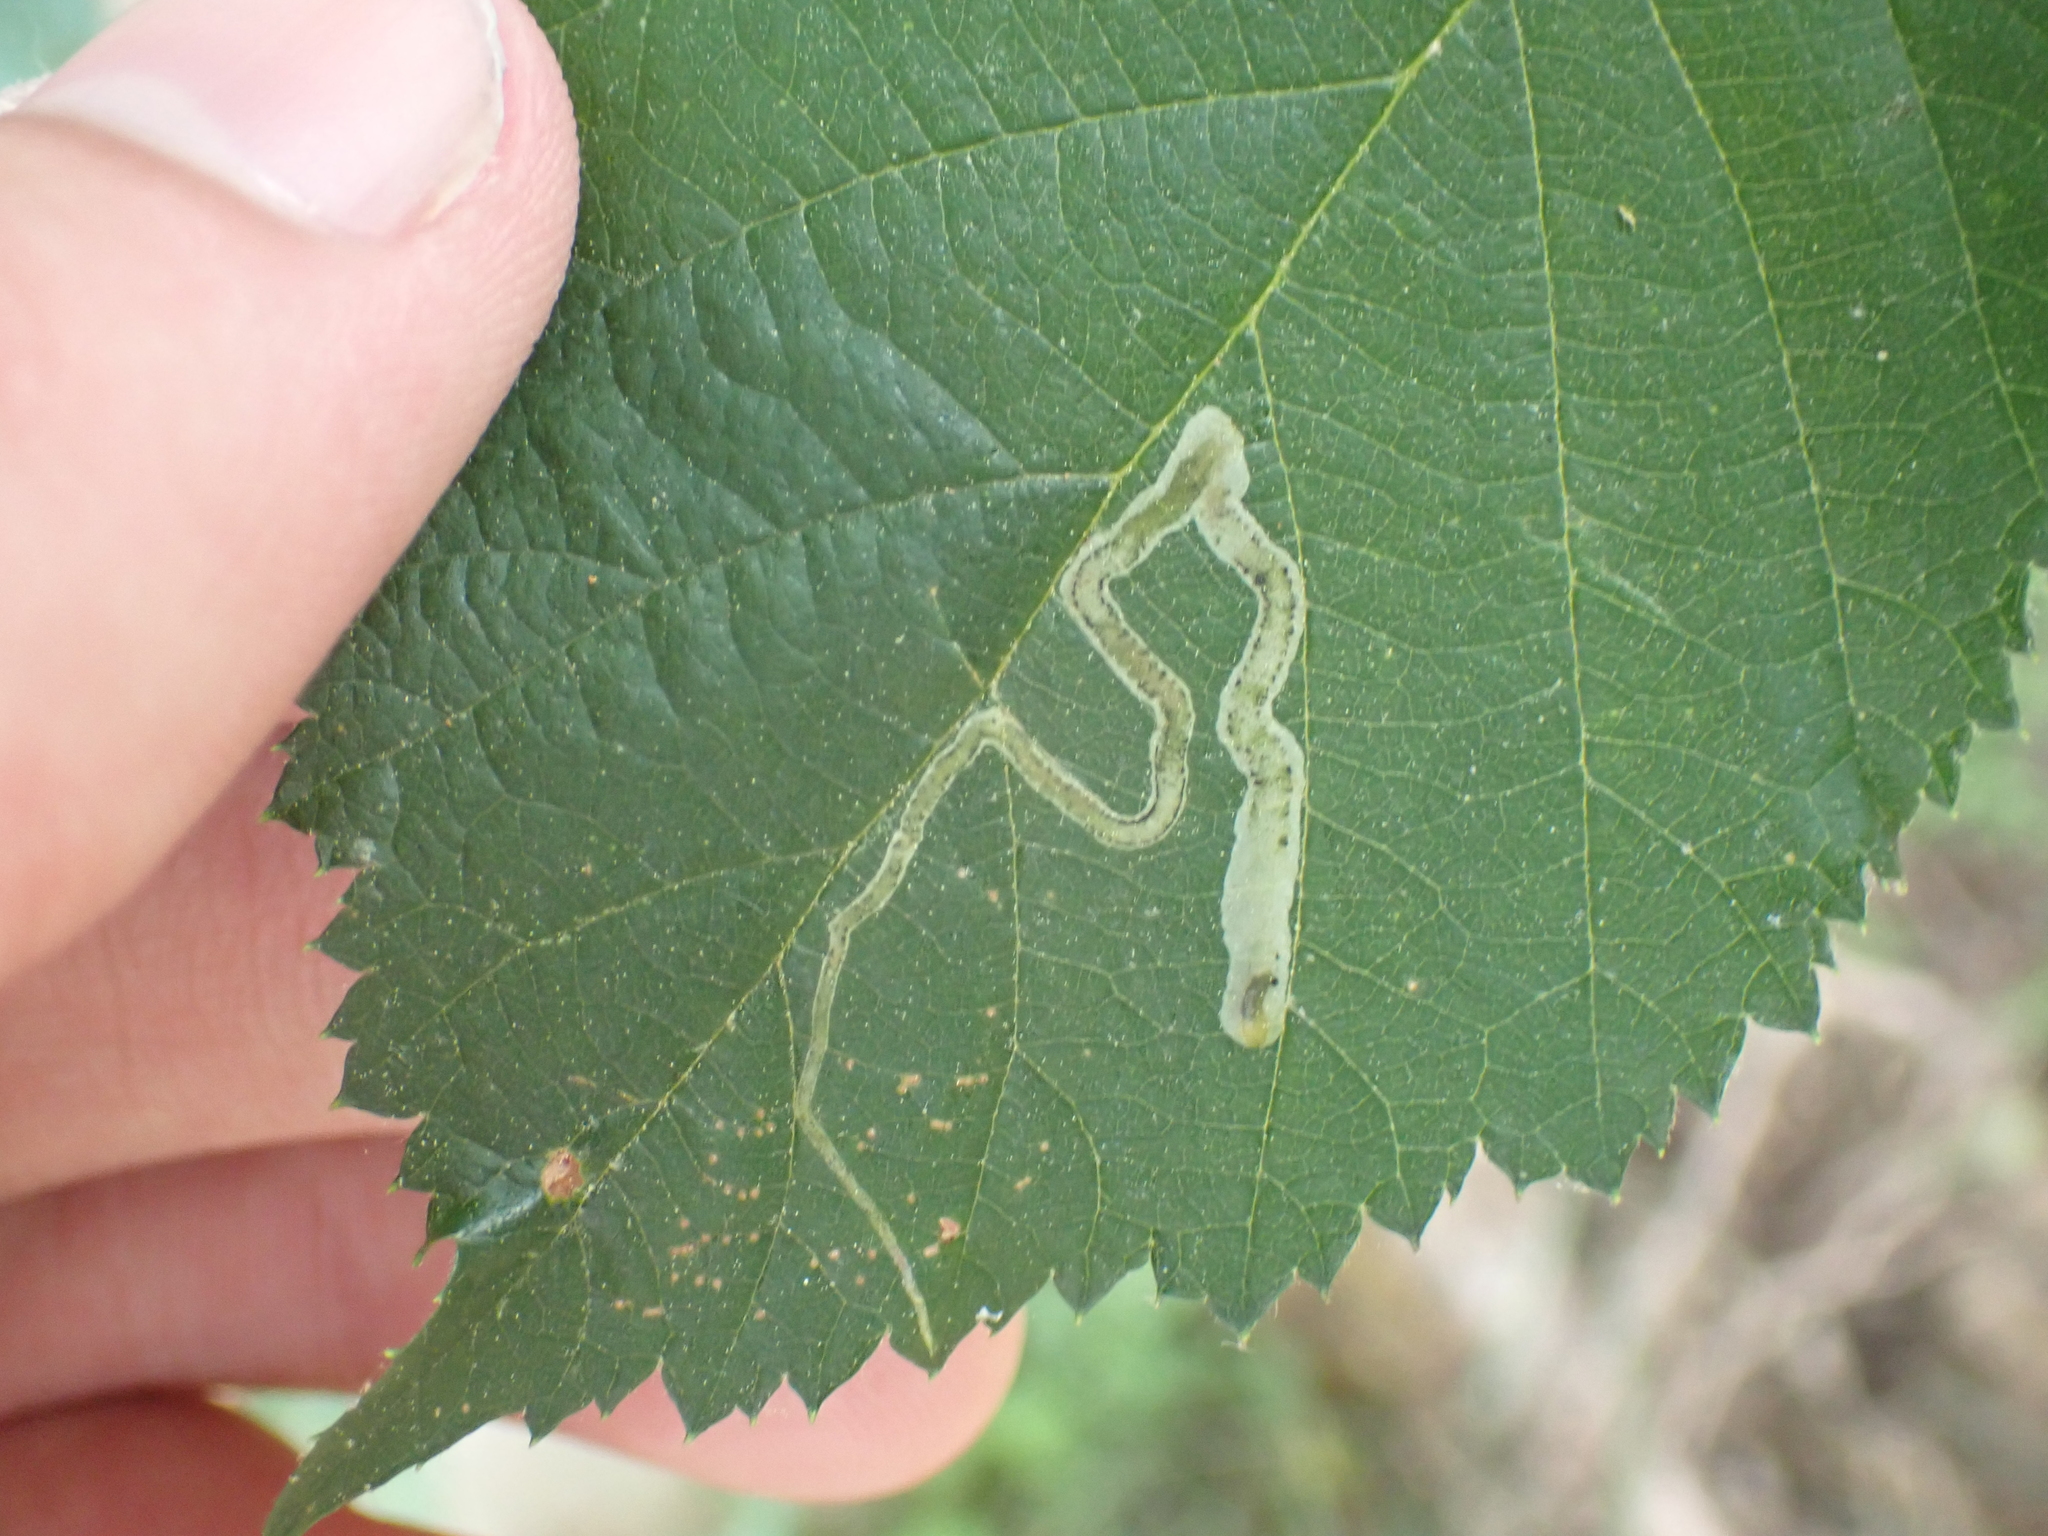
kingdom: Animalia
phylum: Arthropoda
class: Insecta
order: Diptera
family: Agromyzidae
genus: Agromyza
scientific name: Agromyza vockerothi
